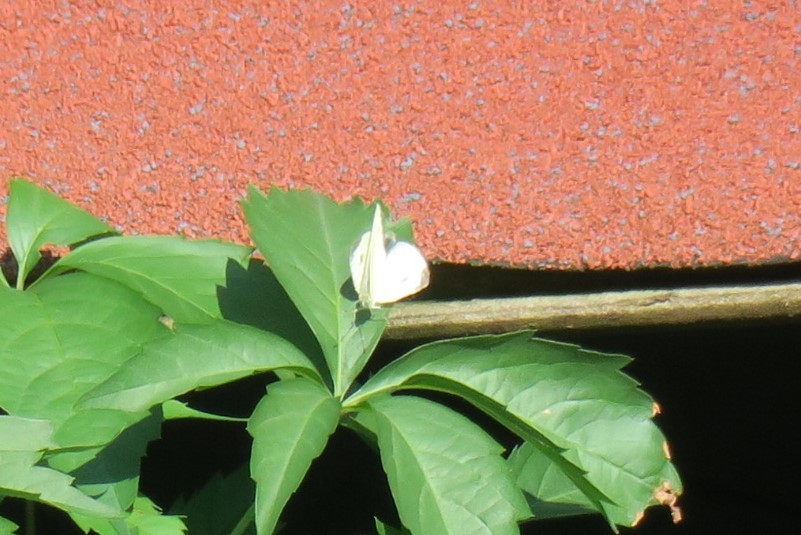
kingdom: Animalia
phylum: Arthropoda
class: Insecta
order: Lepidoptera
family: Pieridae
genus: Pieris
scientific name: Pieris mannii
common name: Southern small white
